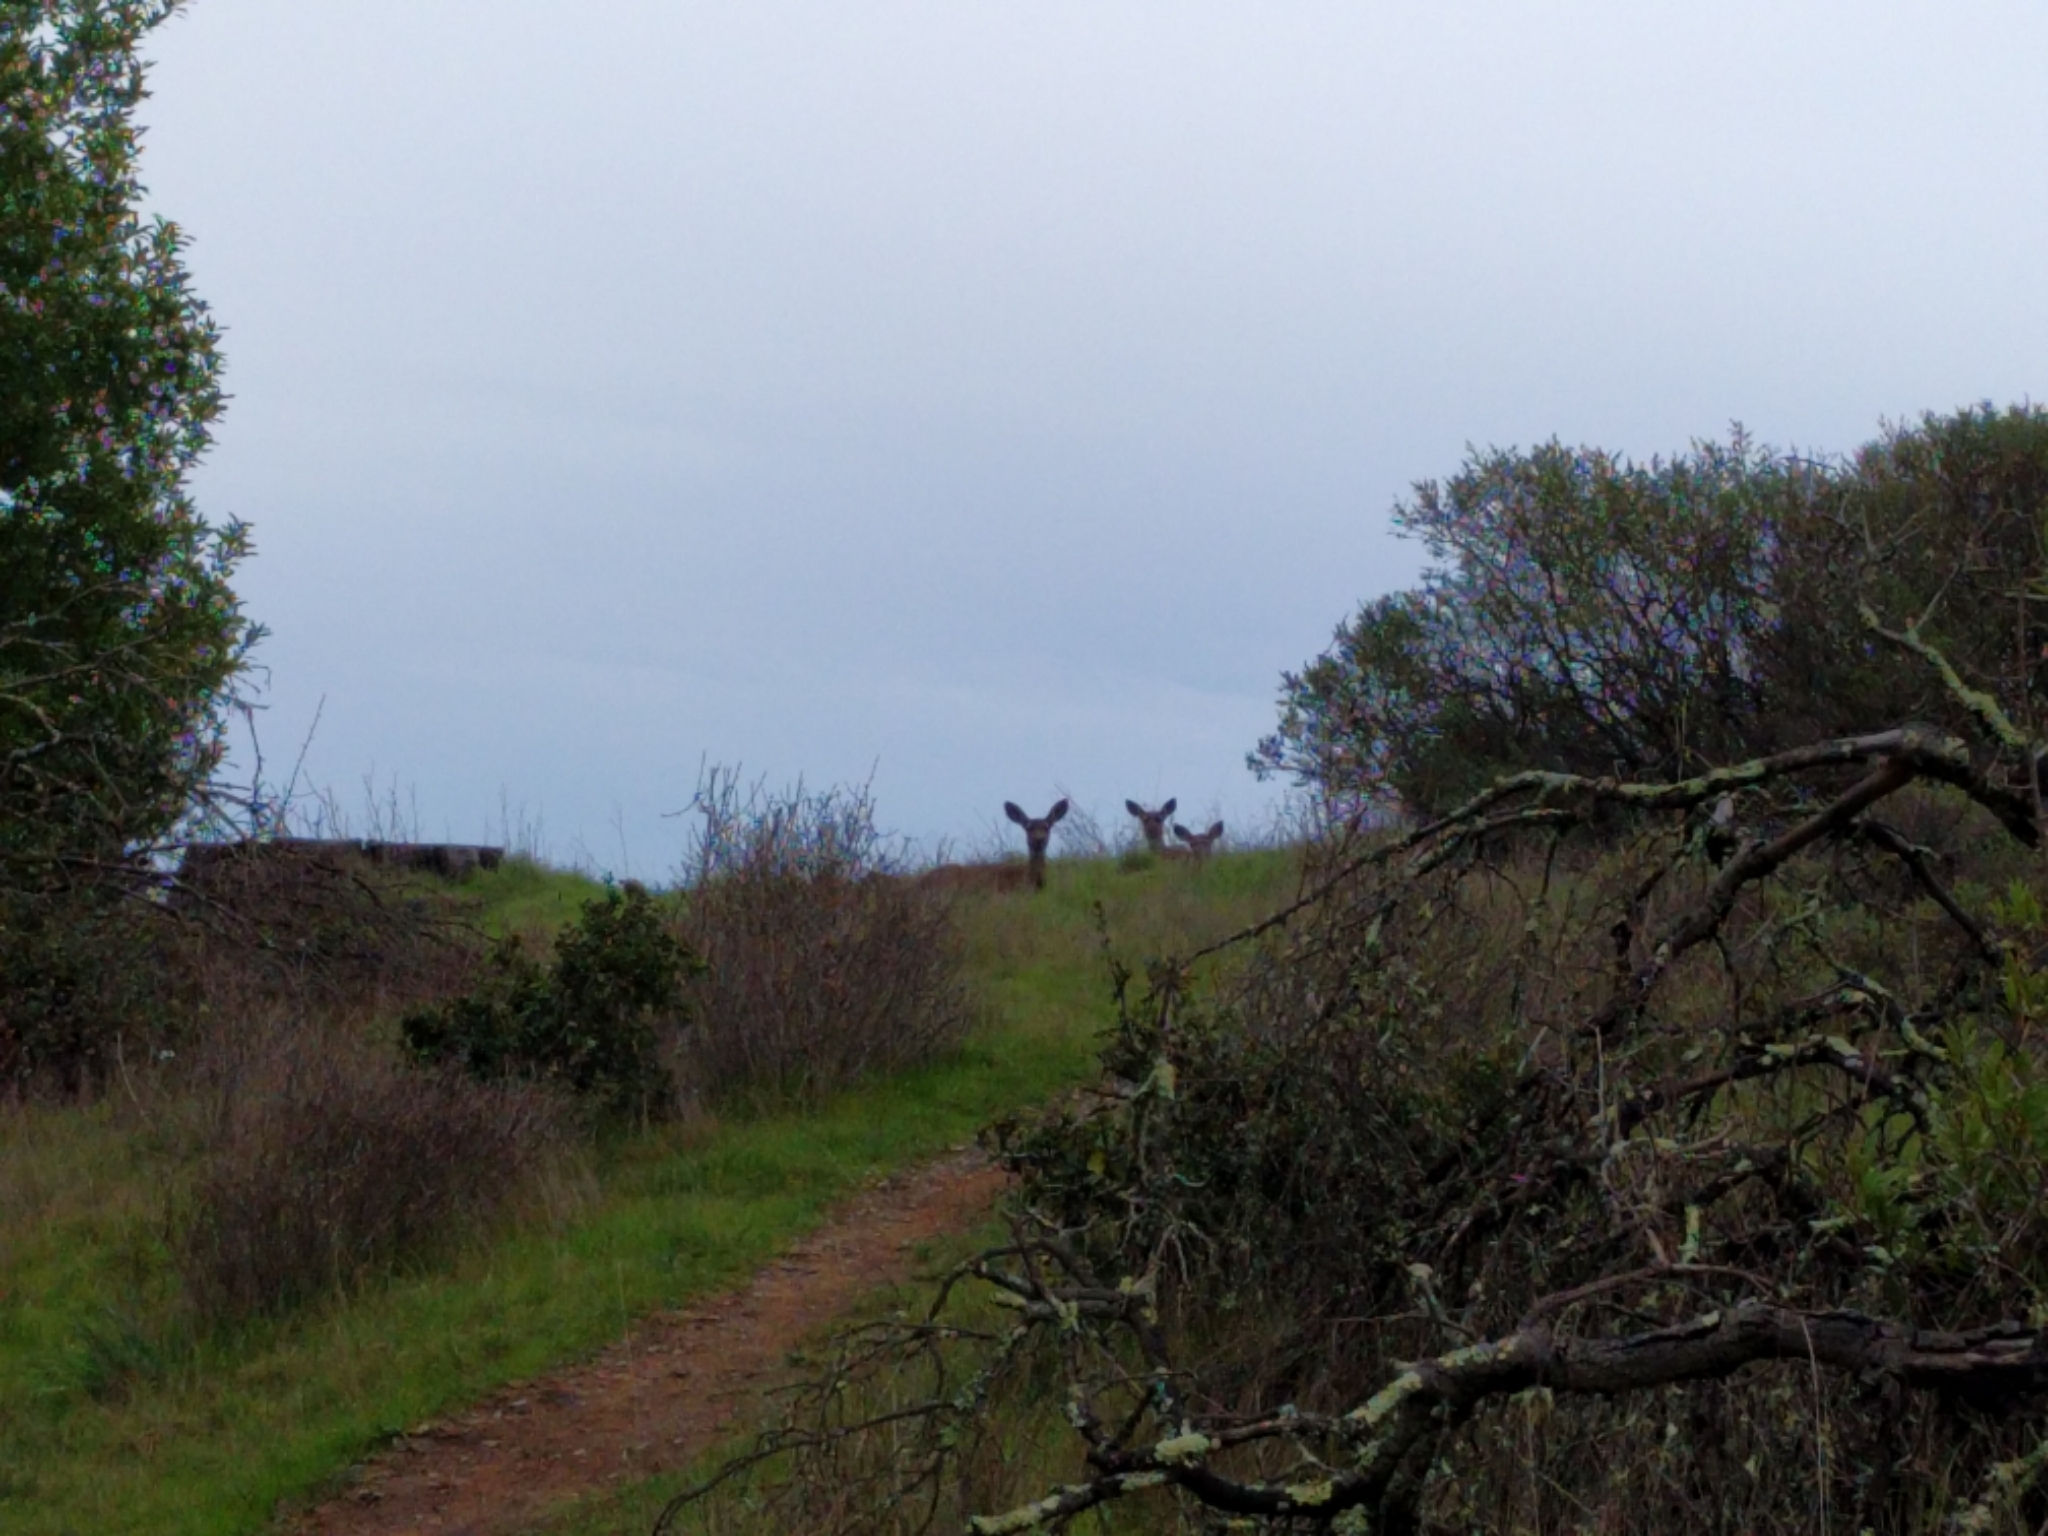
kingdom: Animalia
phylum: Chordata
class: Mammalia
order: Artiodactyla
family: Cervidae
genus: Odocoileus
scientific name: Odocoileus hemionus
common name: Mule deer
